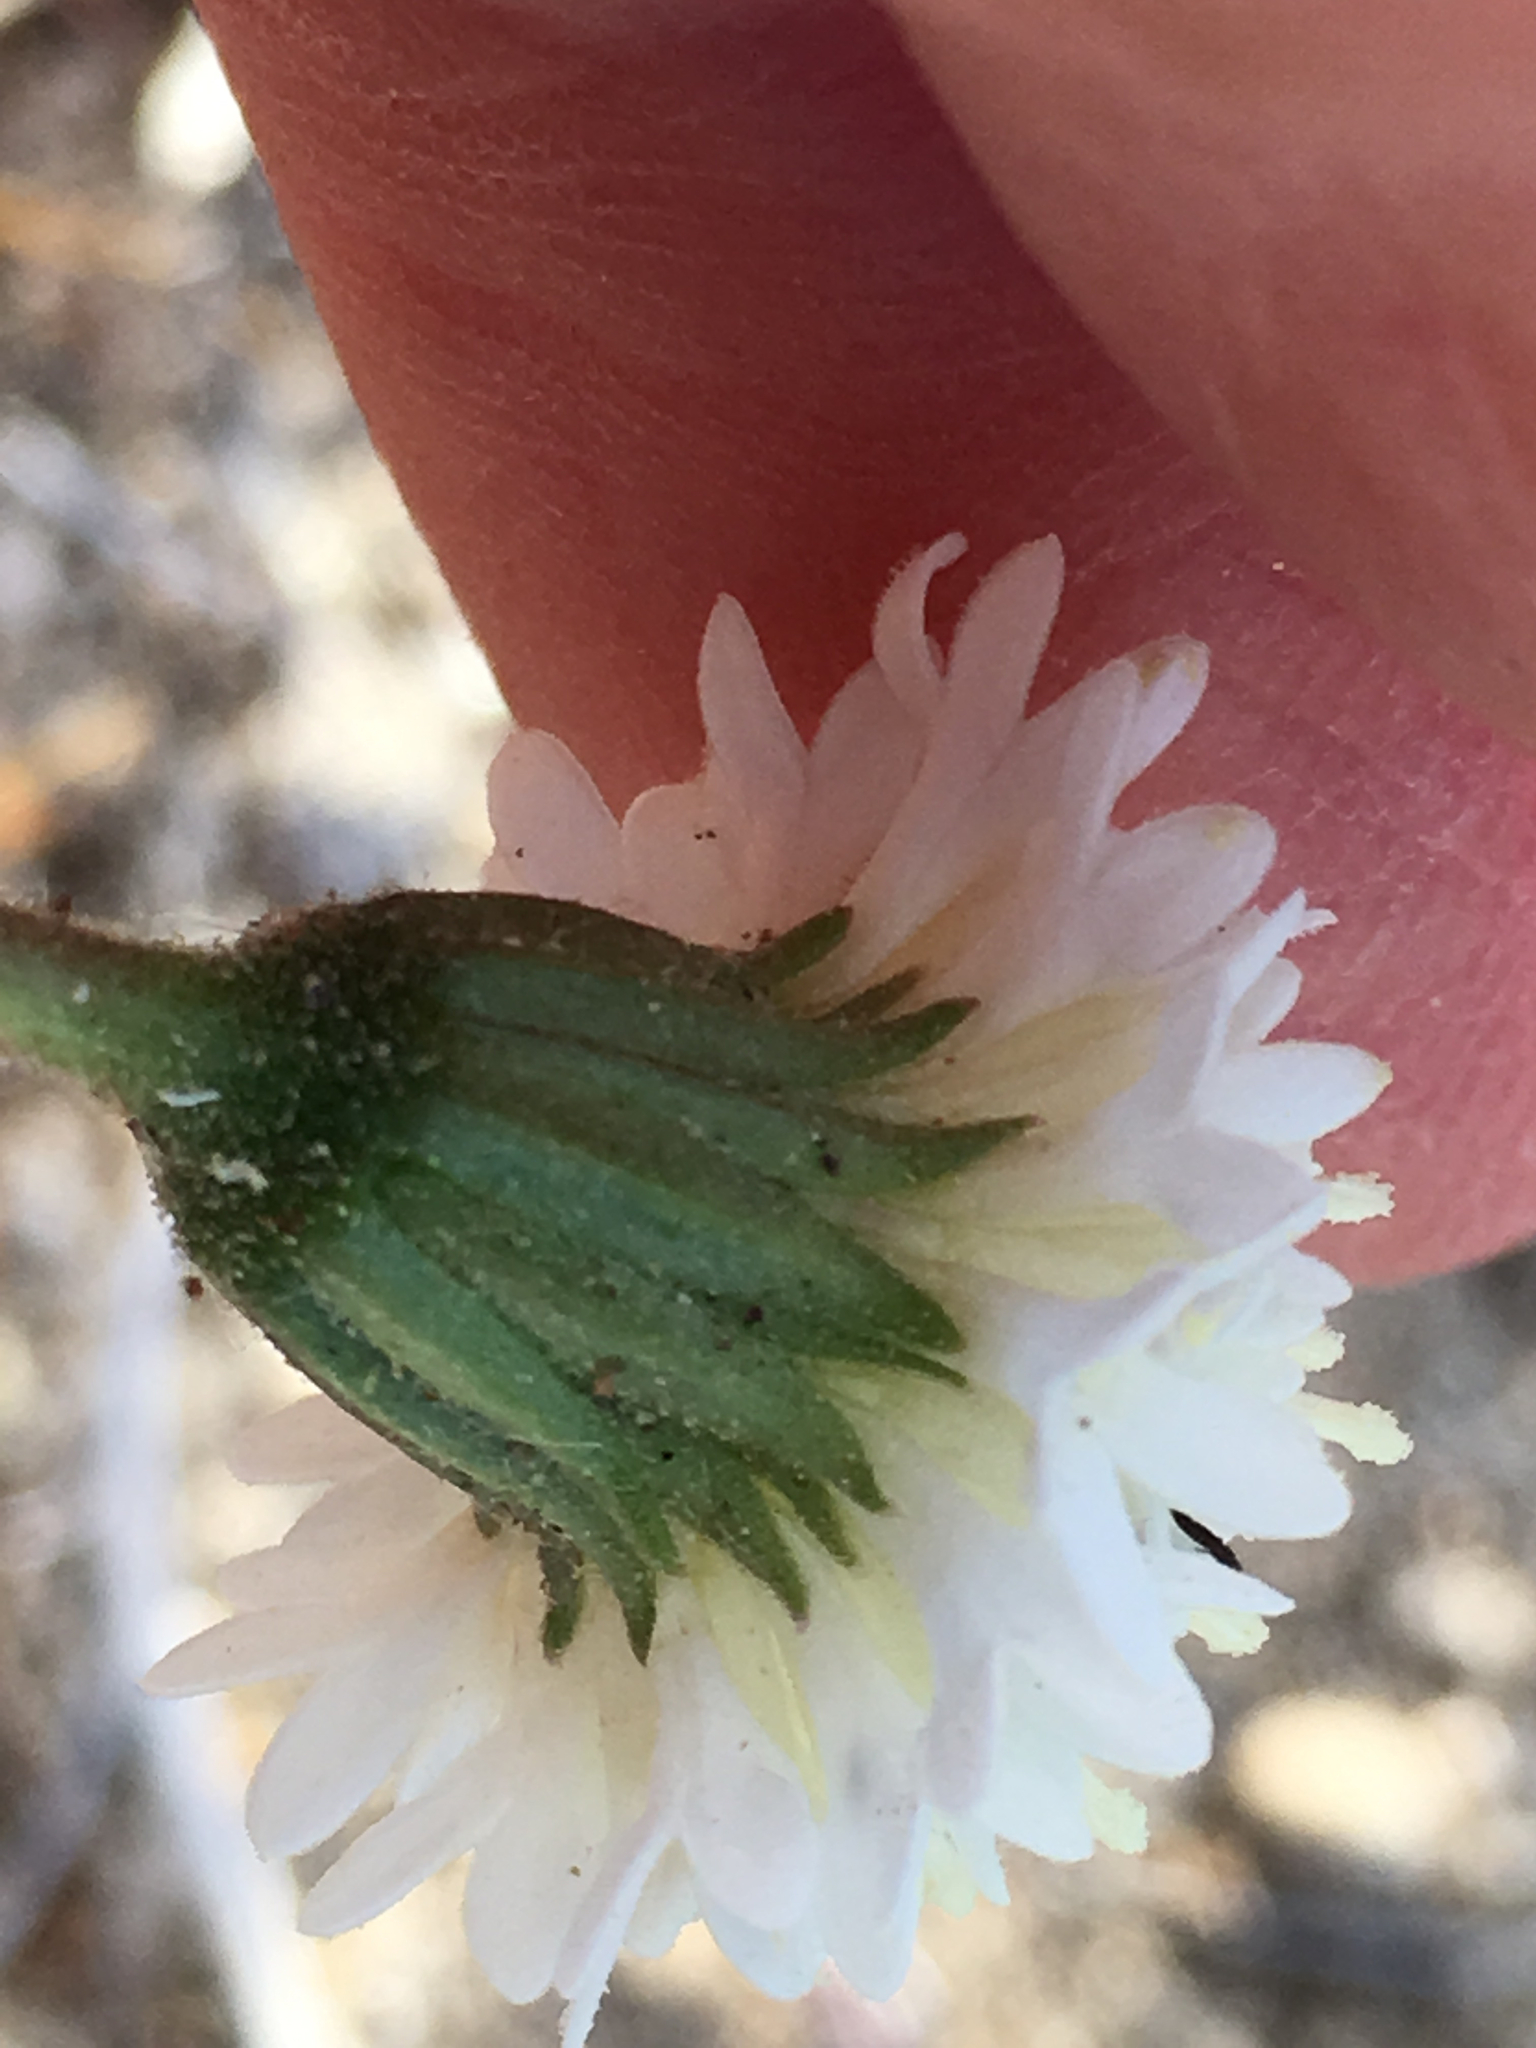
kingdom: Plantae
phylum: Tracheophyta
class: Magnoliopsida
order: Asterales
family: Asteraceae
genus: Chaenactis
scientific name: Chaenactis fremontii
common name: Fremont pincushion
